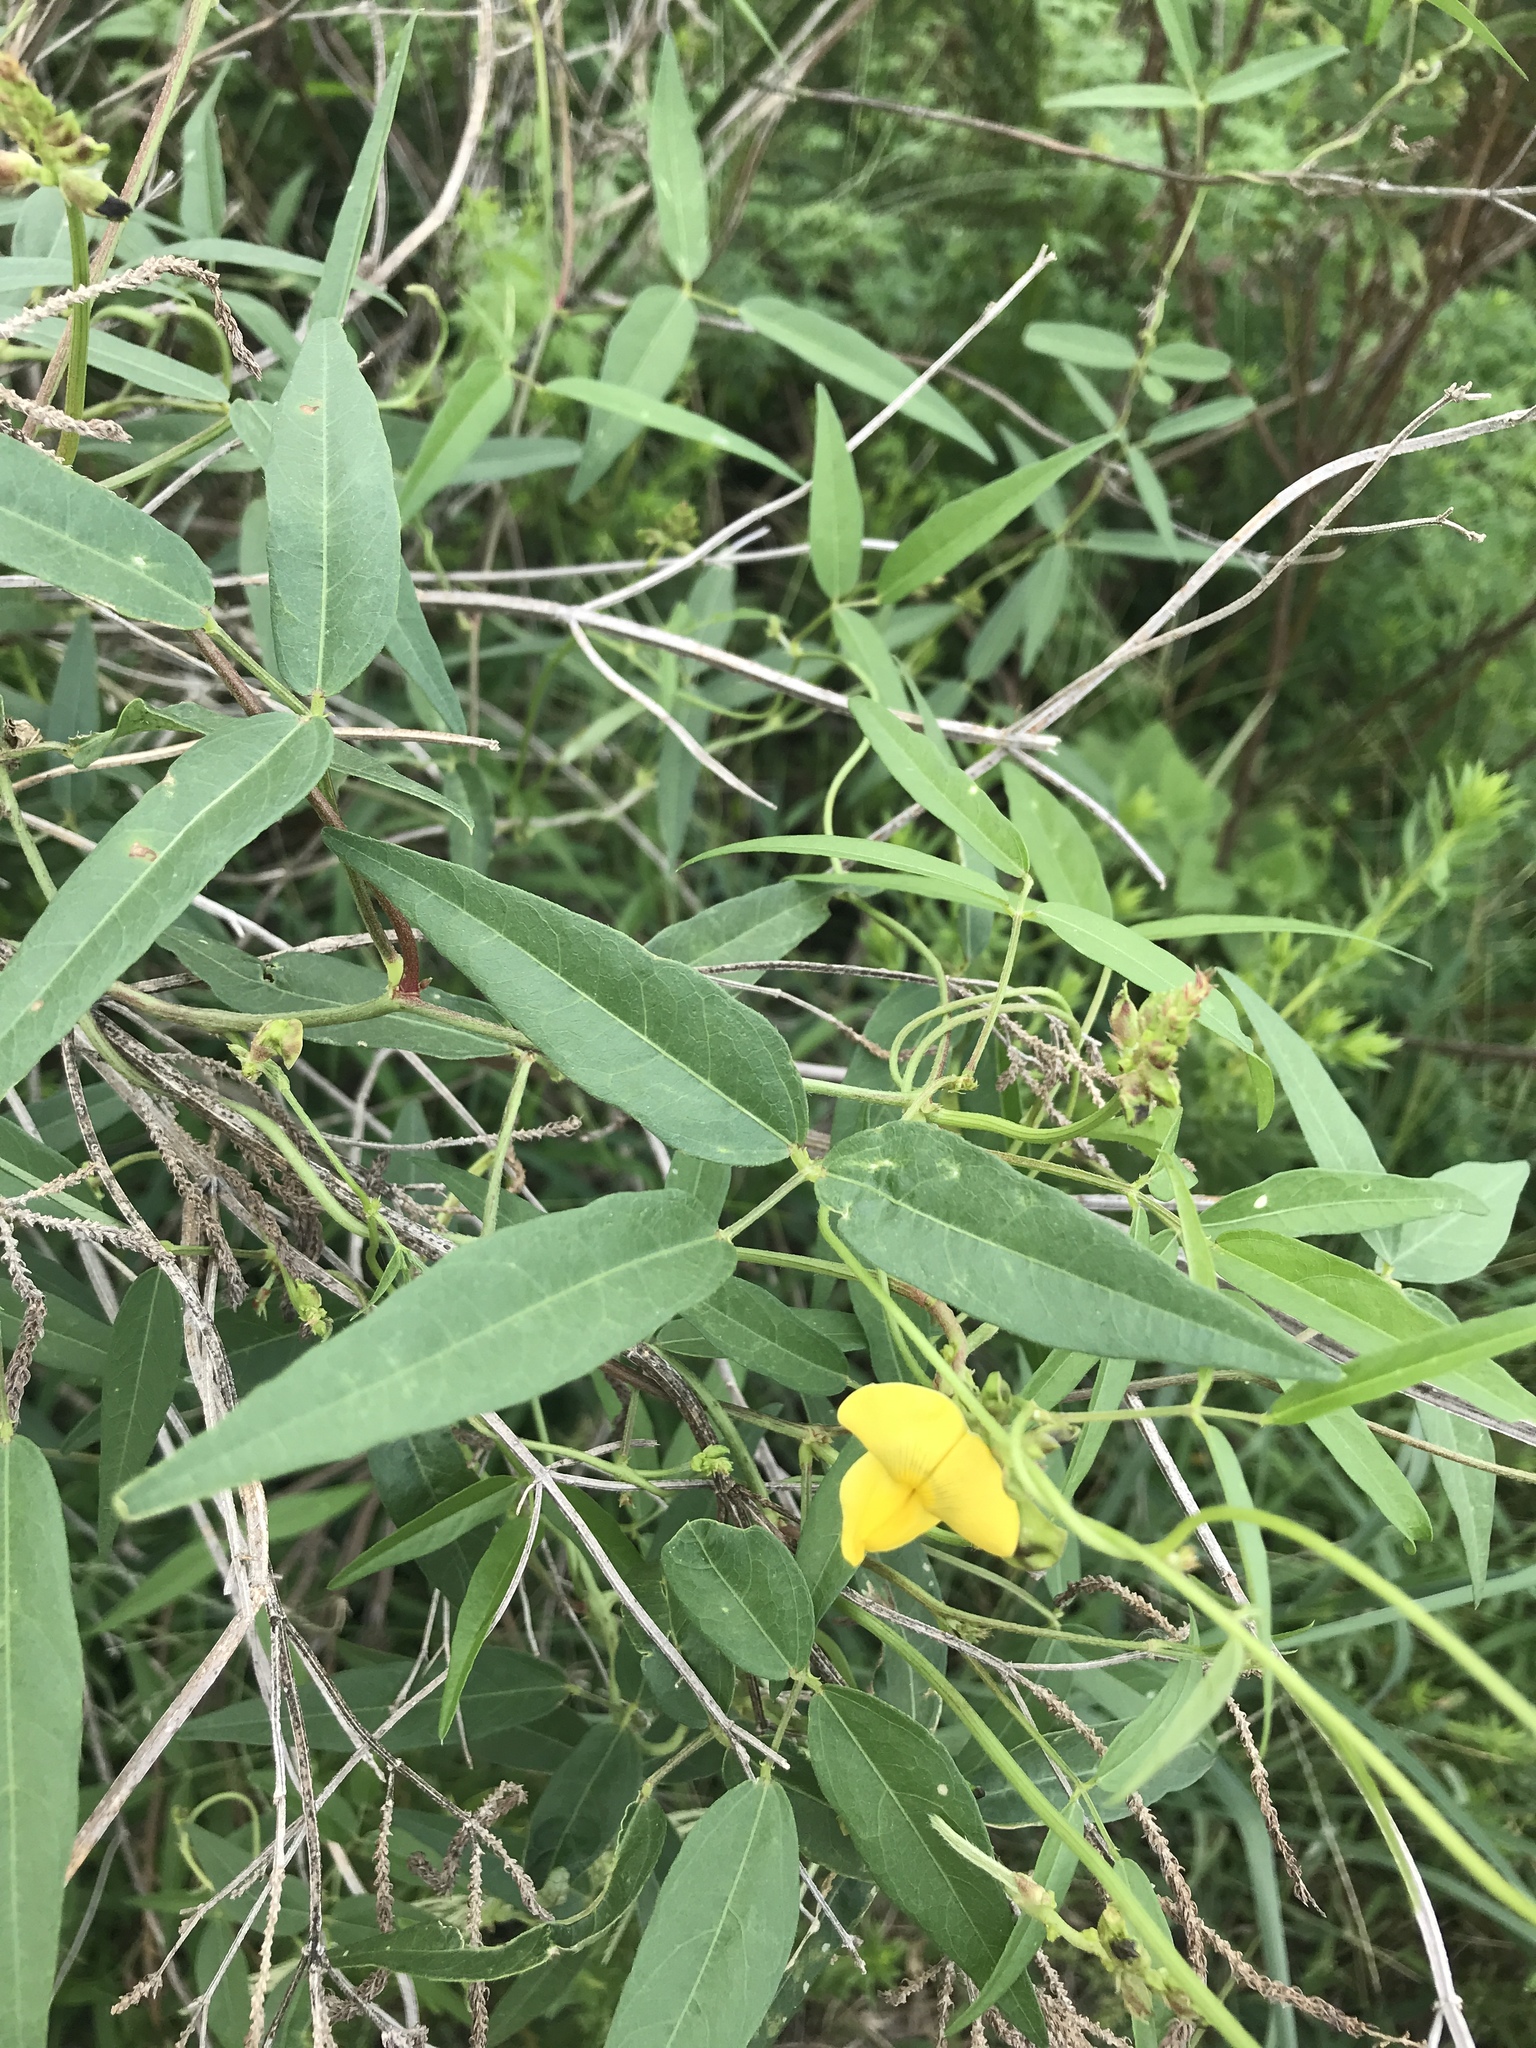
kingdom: Plantae
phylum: Tracheophyta
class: Magnoliopsida
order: Fabales
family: Fabaceae
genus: Vigna
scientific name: Vigna luteola
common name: Hairypod cowpea
